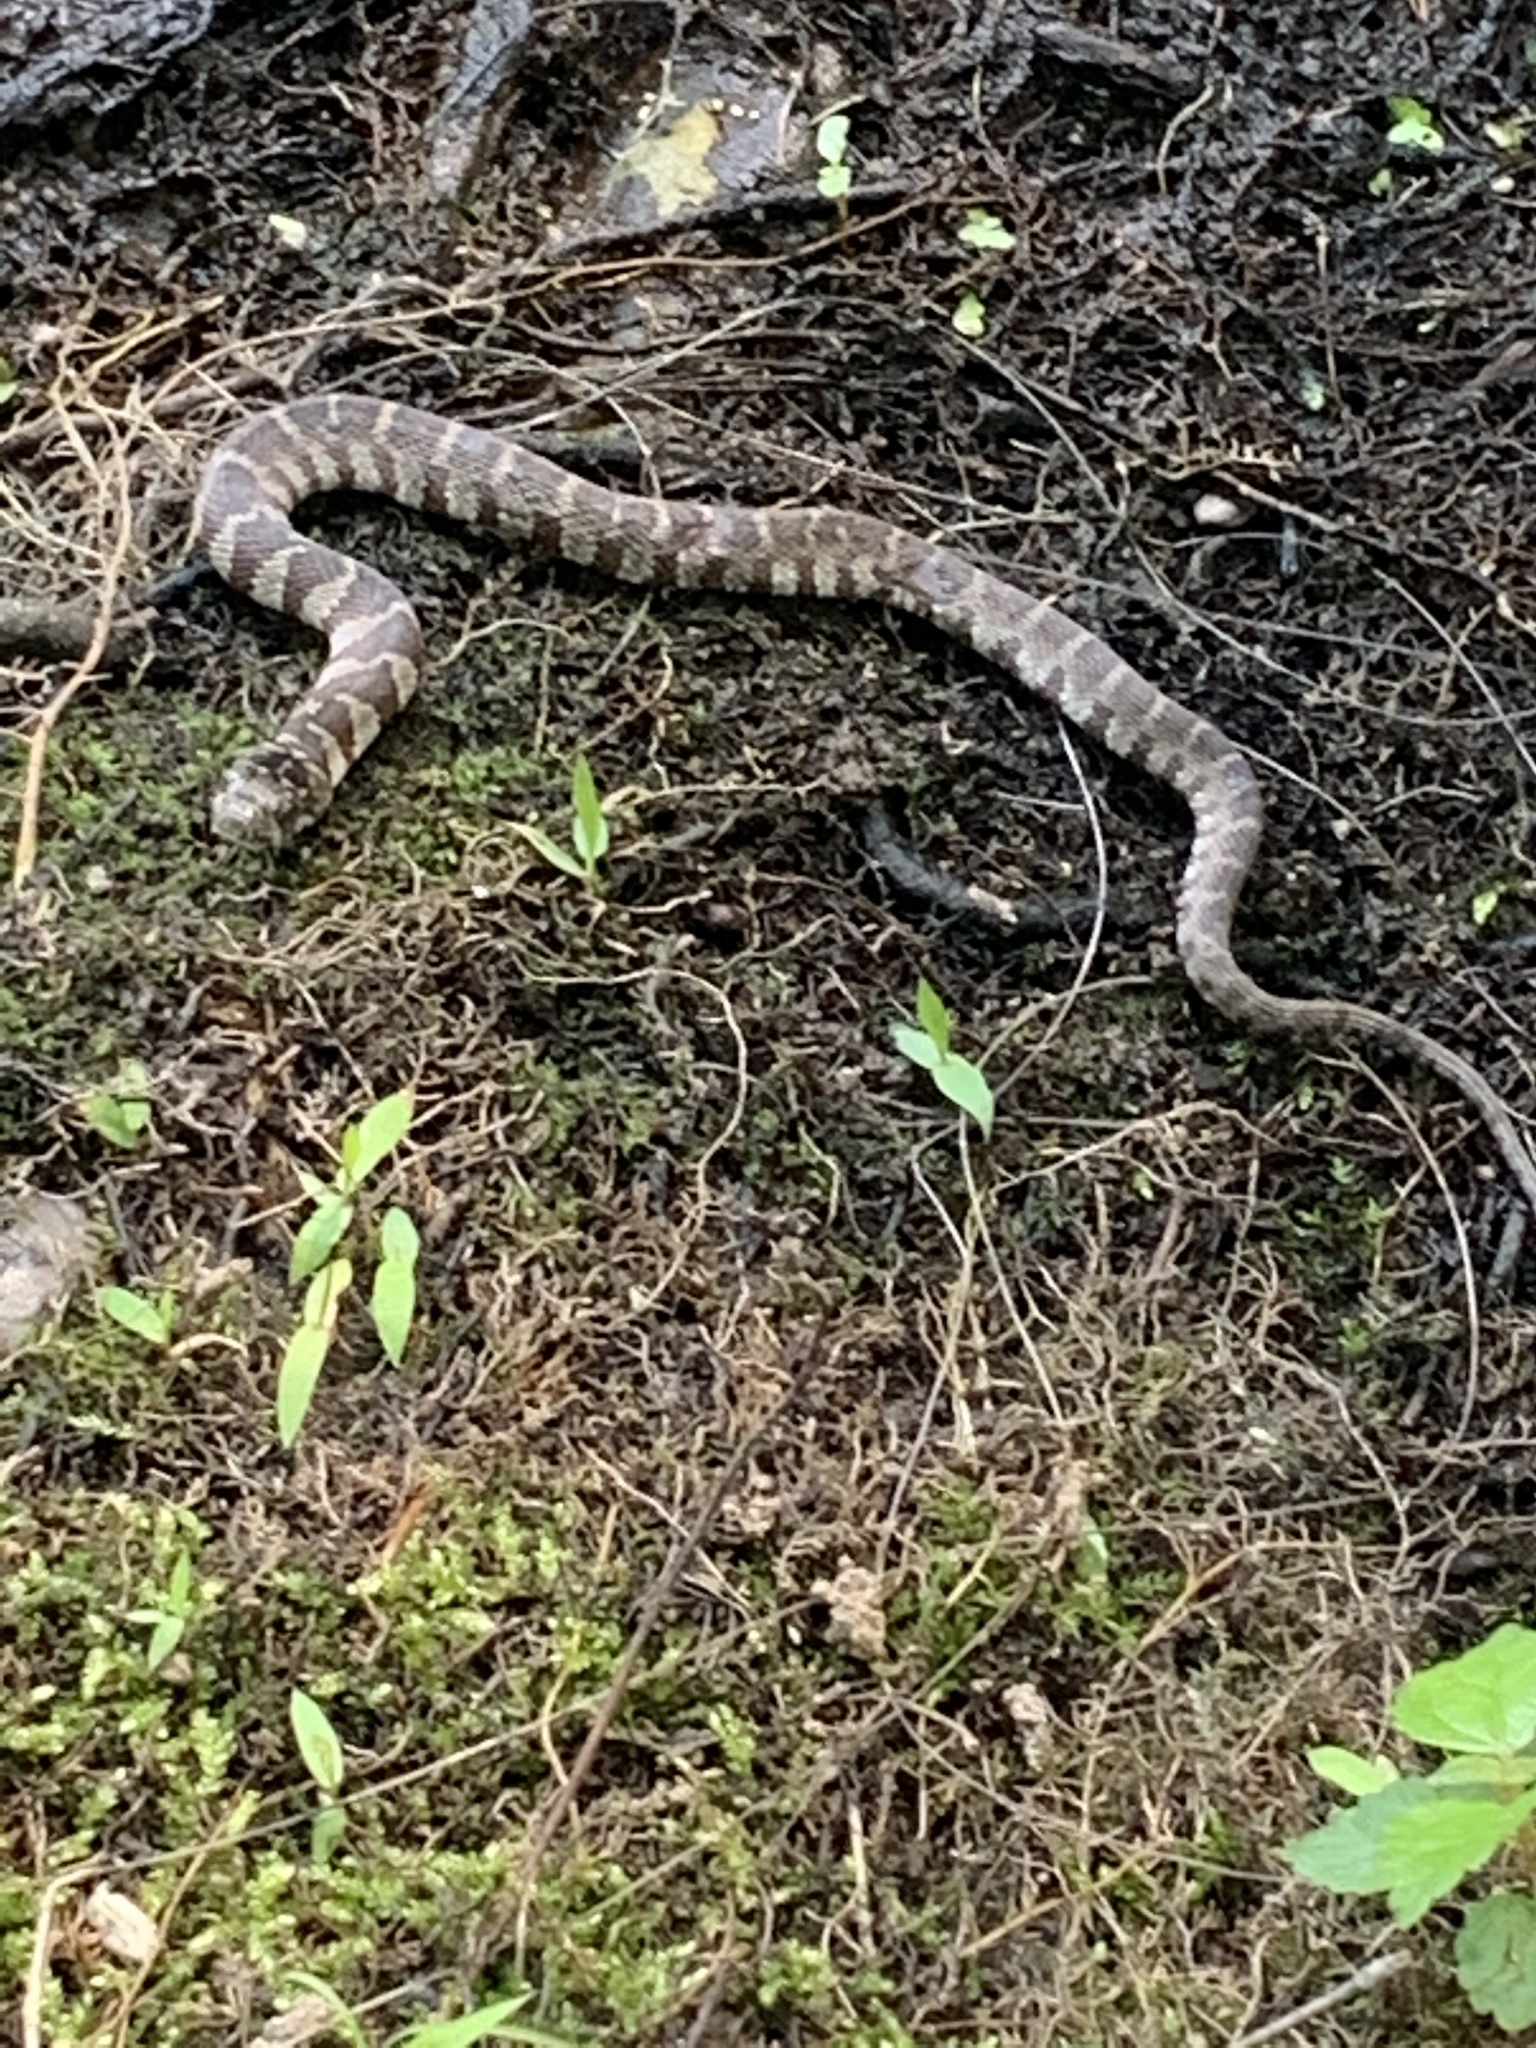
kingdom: Animalia
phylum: Chordata
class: Squamata
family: Colubridae
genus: Nerodia
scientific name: Nerodia sipedon
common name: Northern water snake
